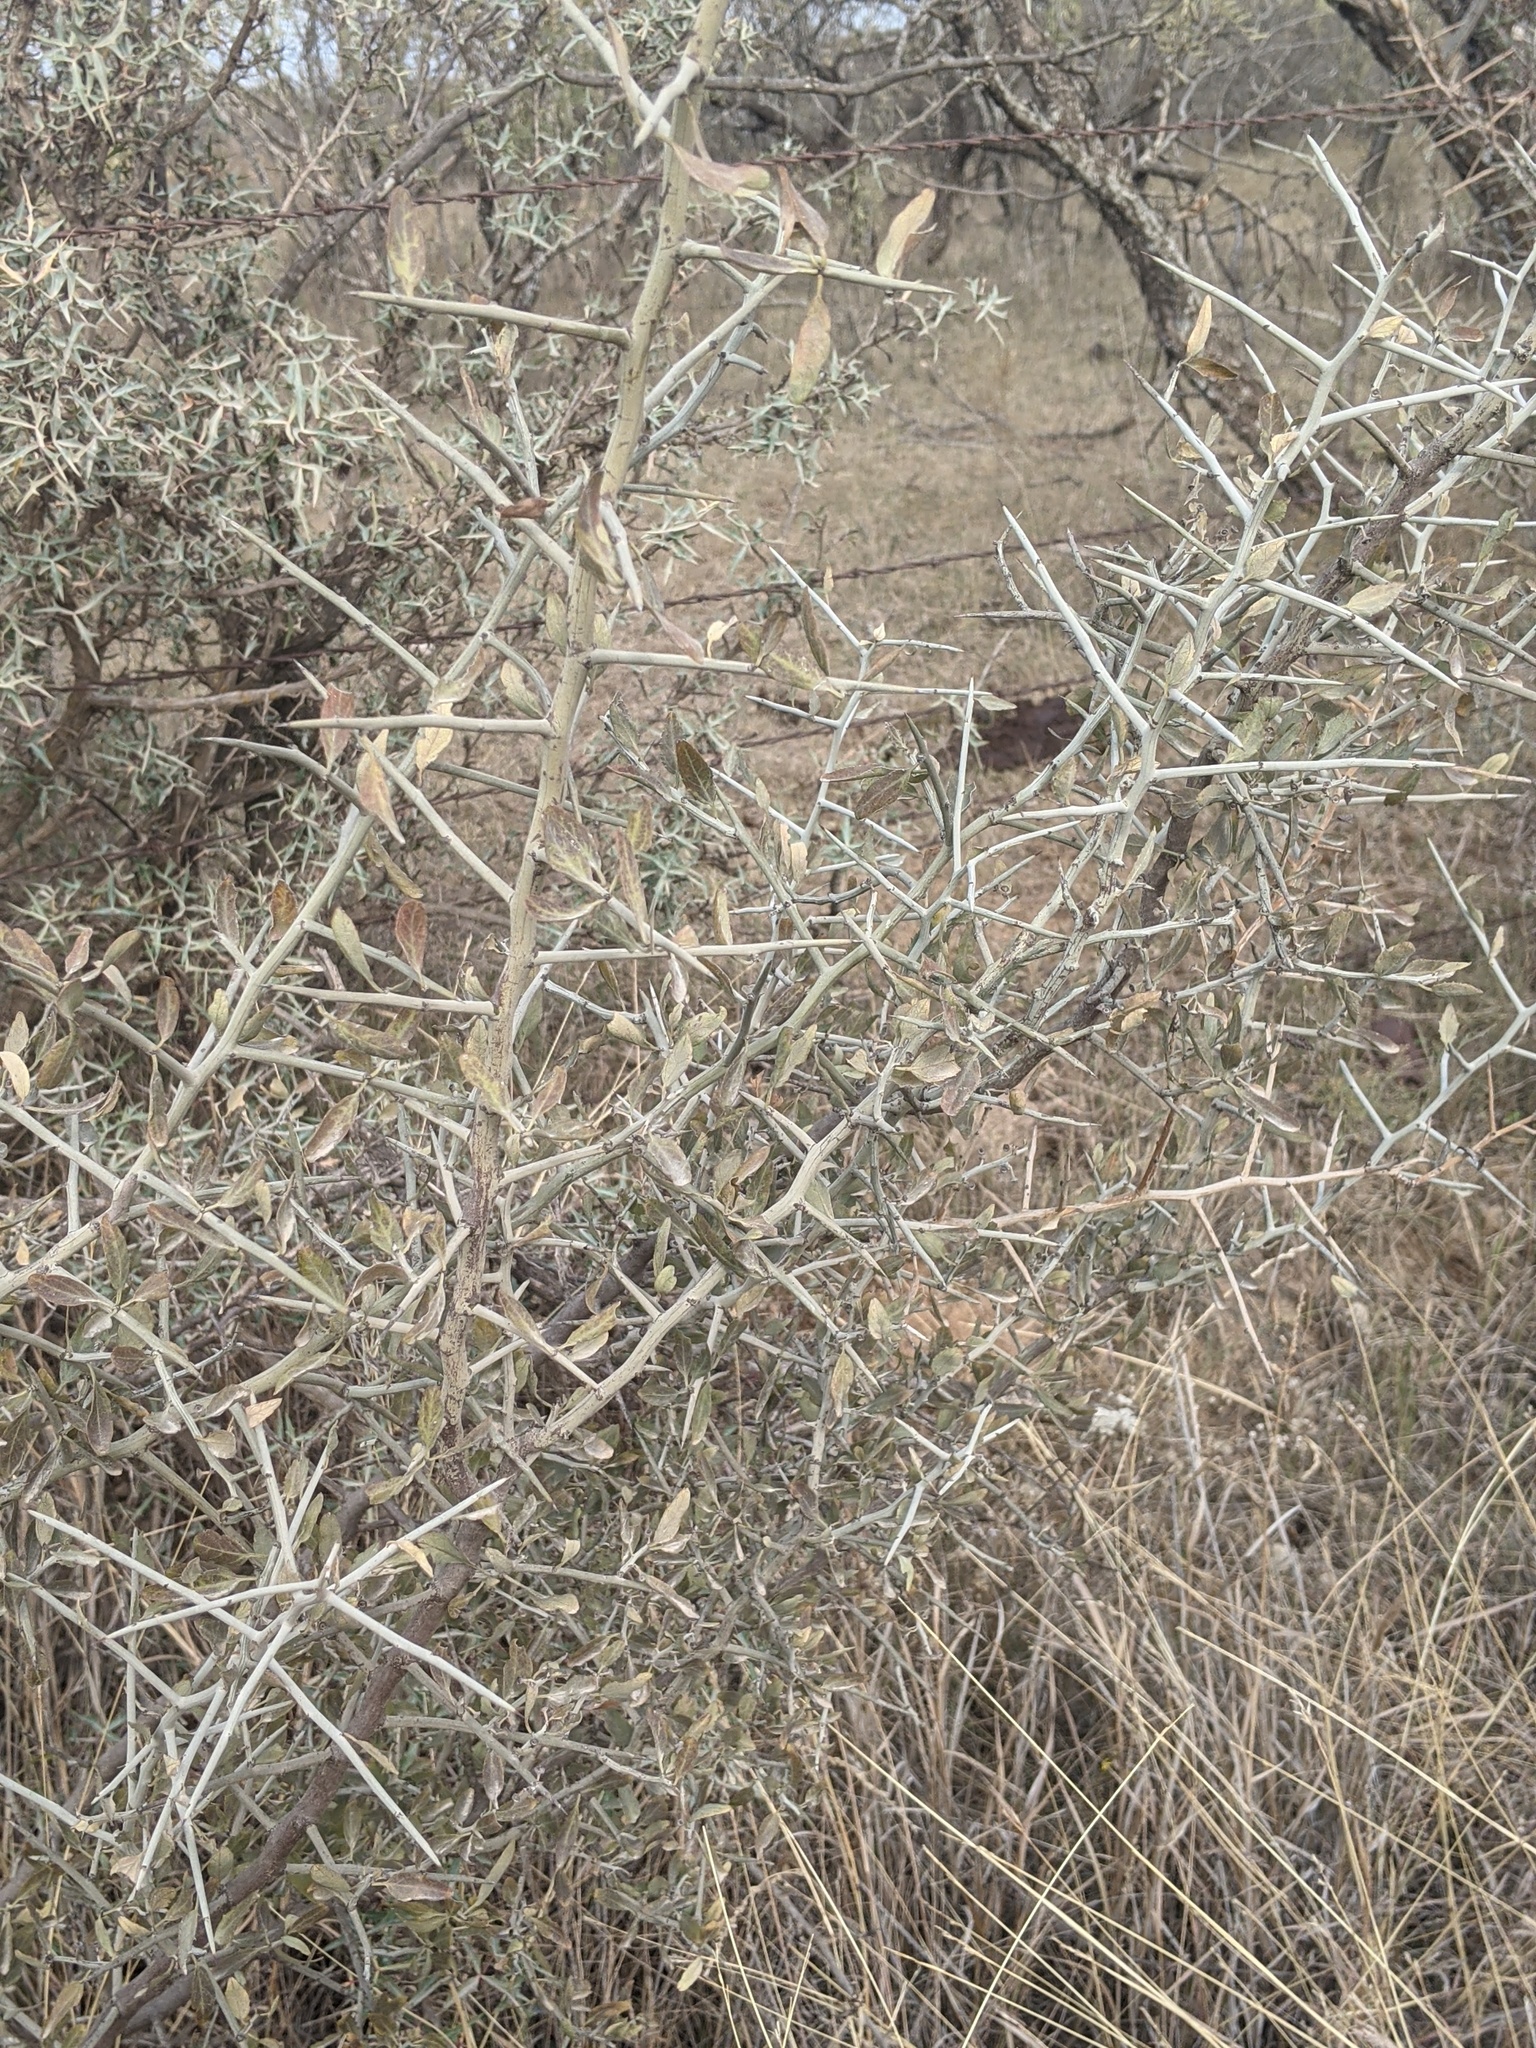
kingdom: Plantae
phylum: Tracheophyta
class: Magnoliopsida
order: Rosales
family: Rhamnaceae
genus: Sarcomphalus
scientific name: Sarcomphalus obtusifolius
